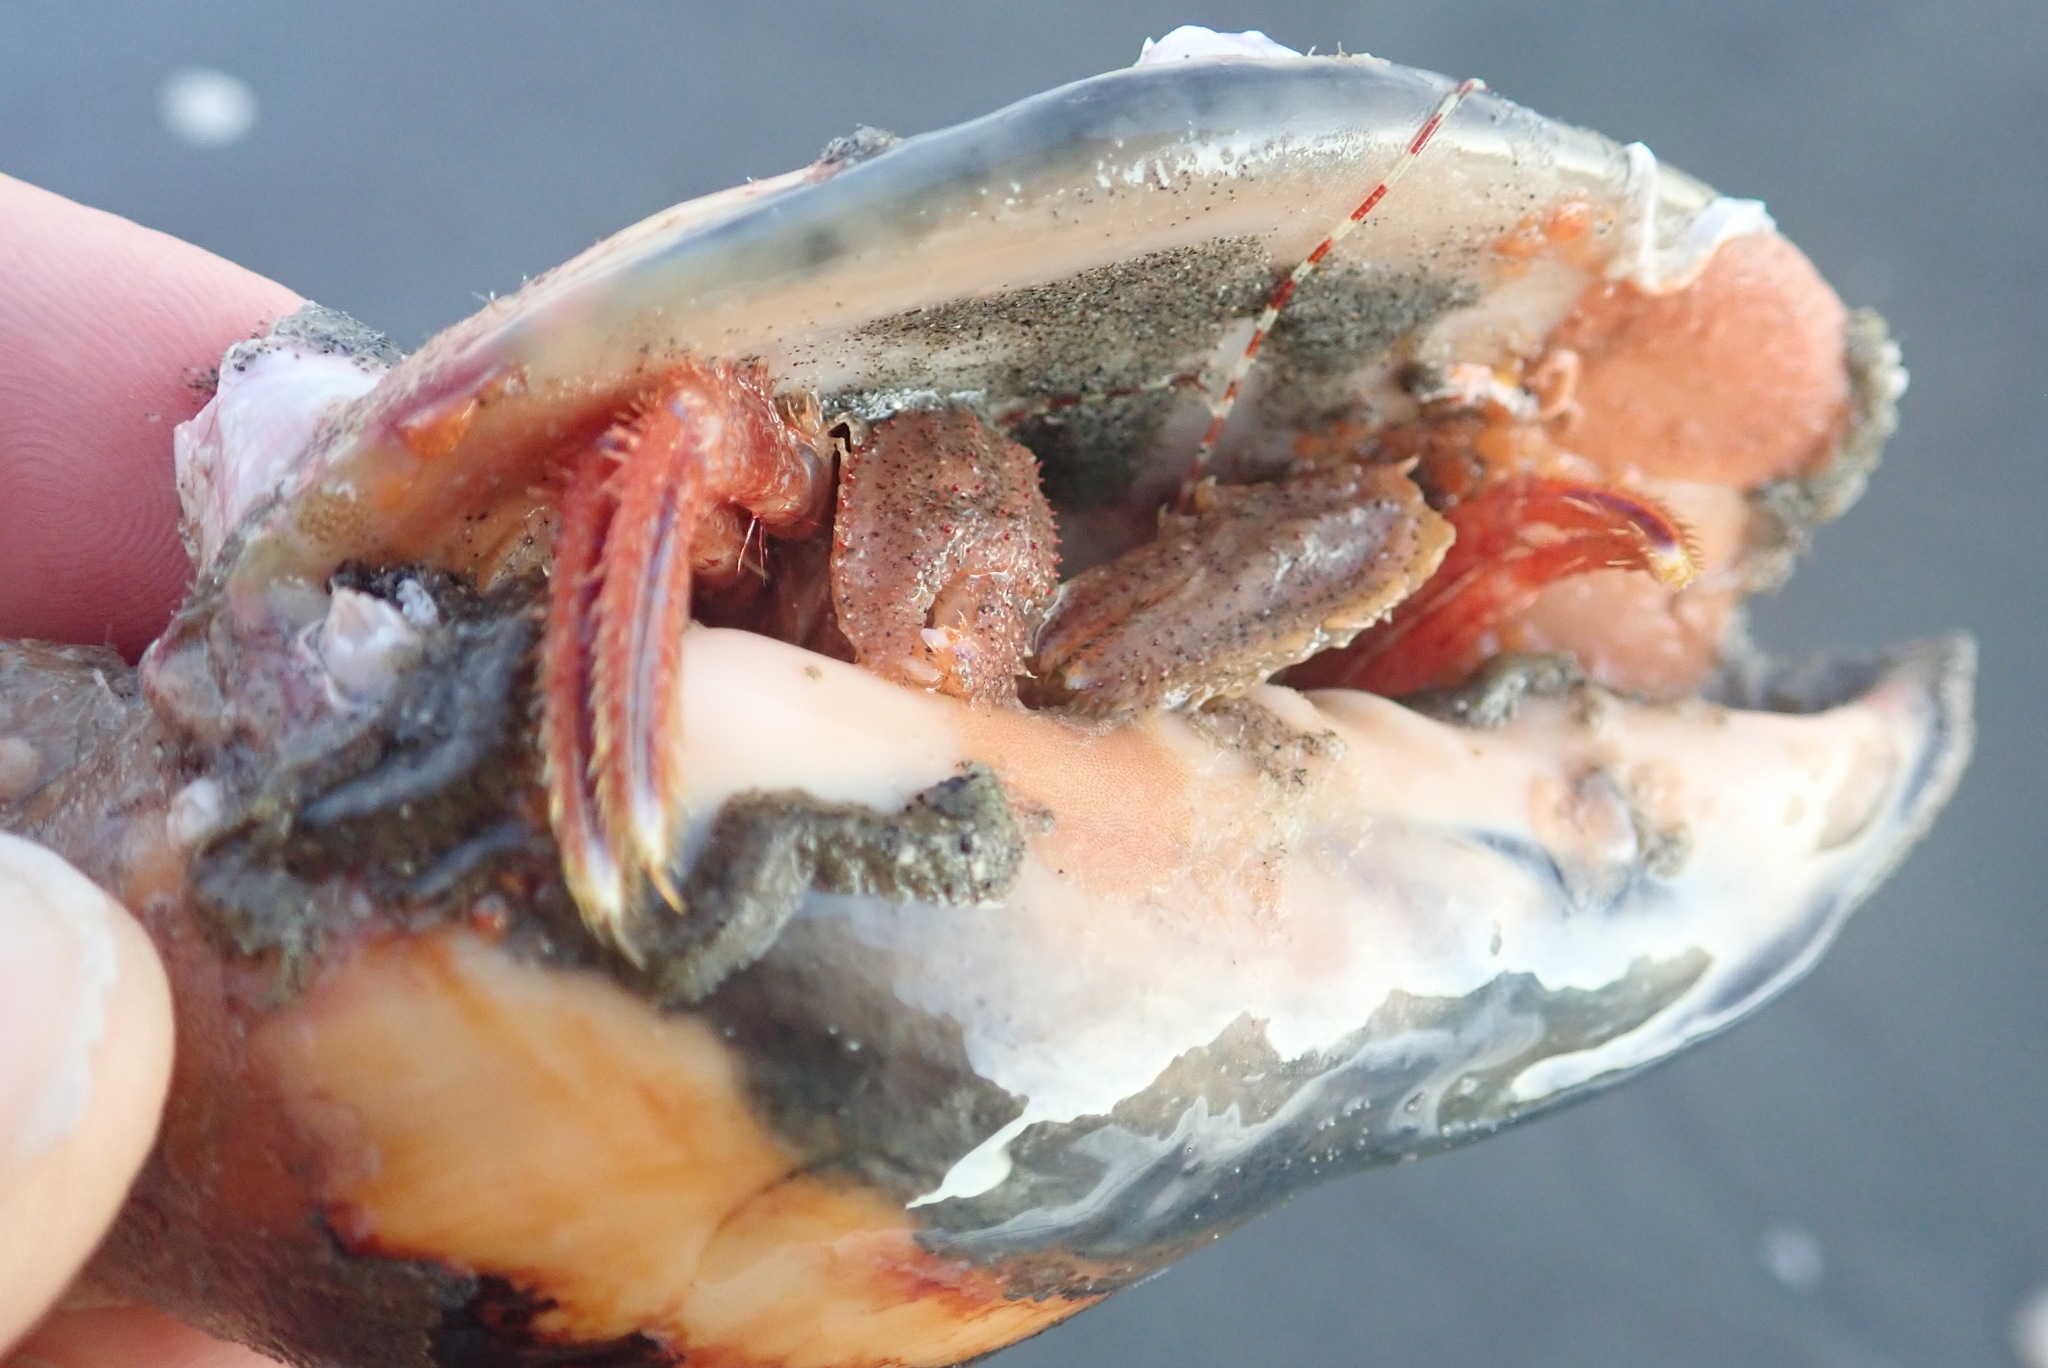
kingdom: Animalia
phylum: Arthropoda
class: Malacostraca
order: Decapoda
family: Paguridae
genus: Diacanthurus
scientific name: Diacanthurus spinulimanus
